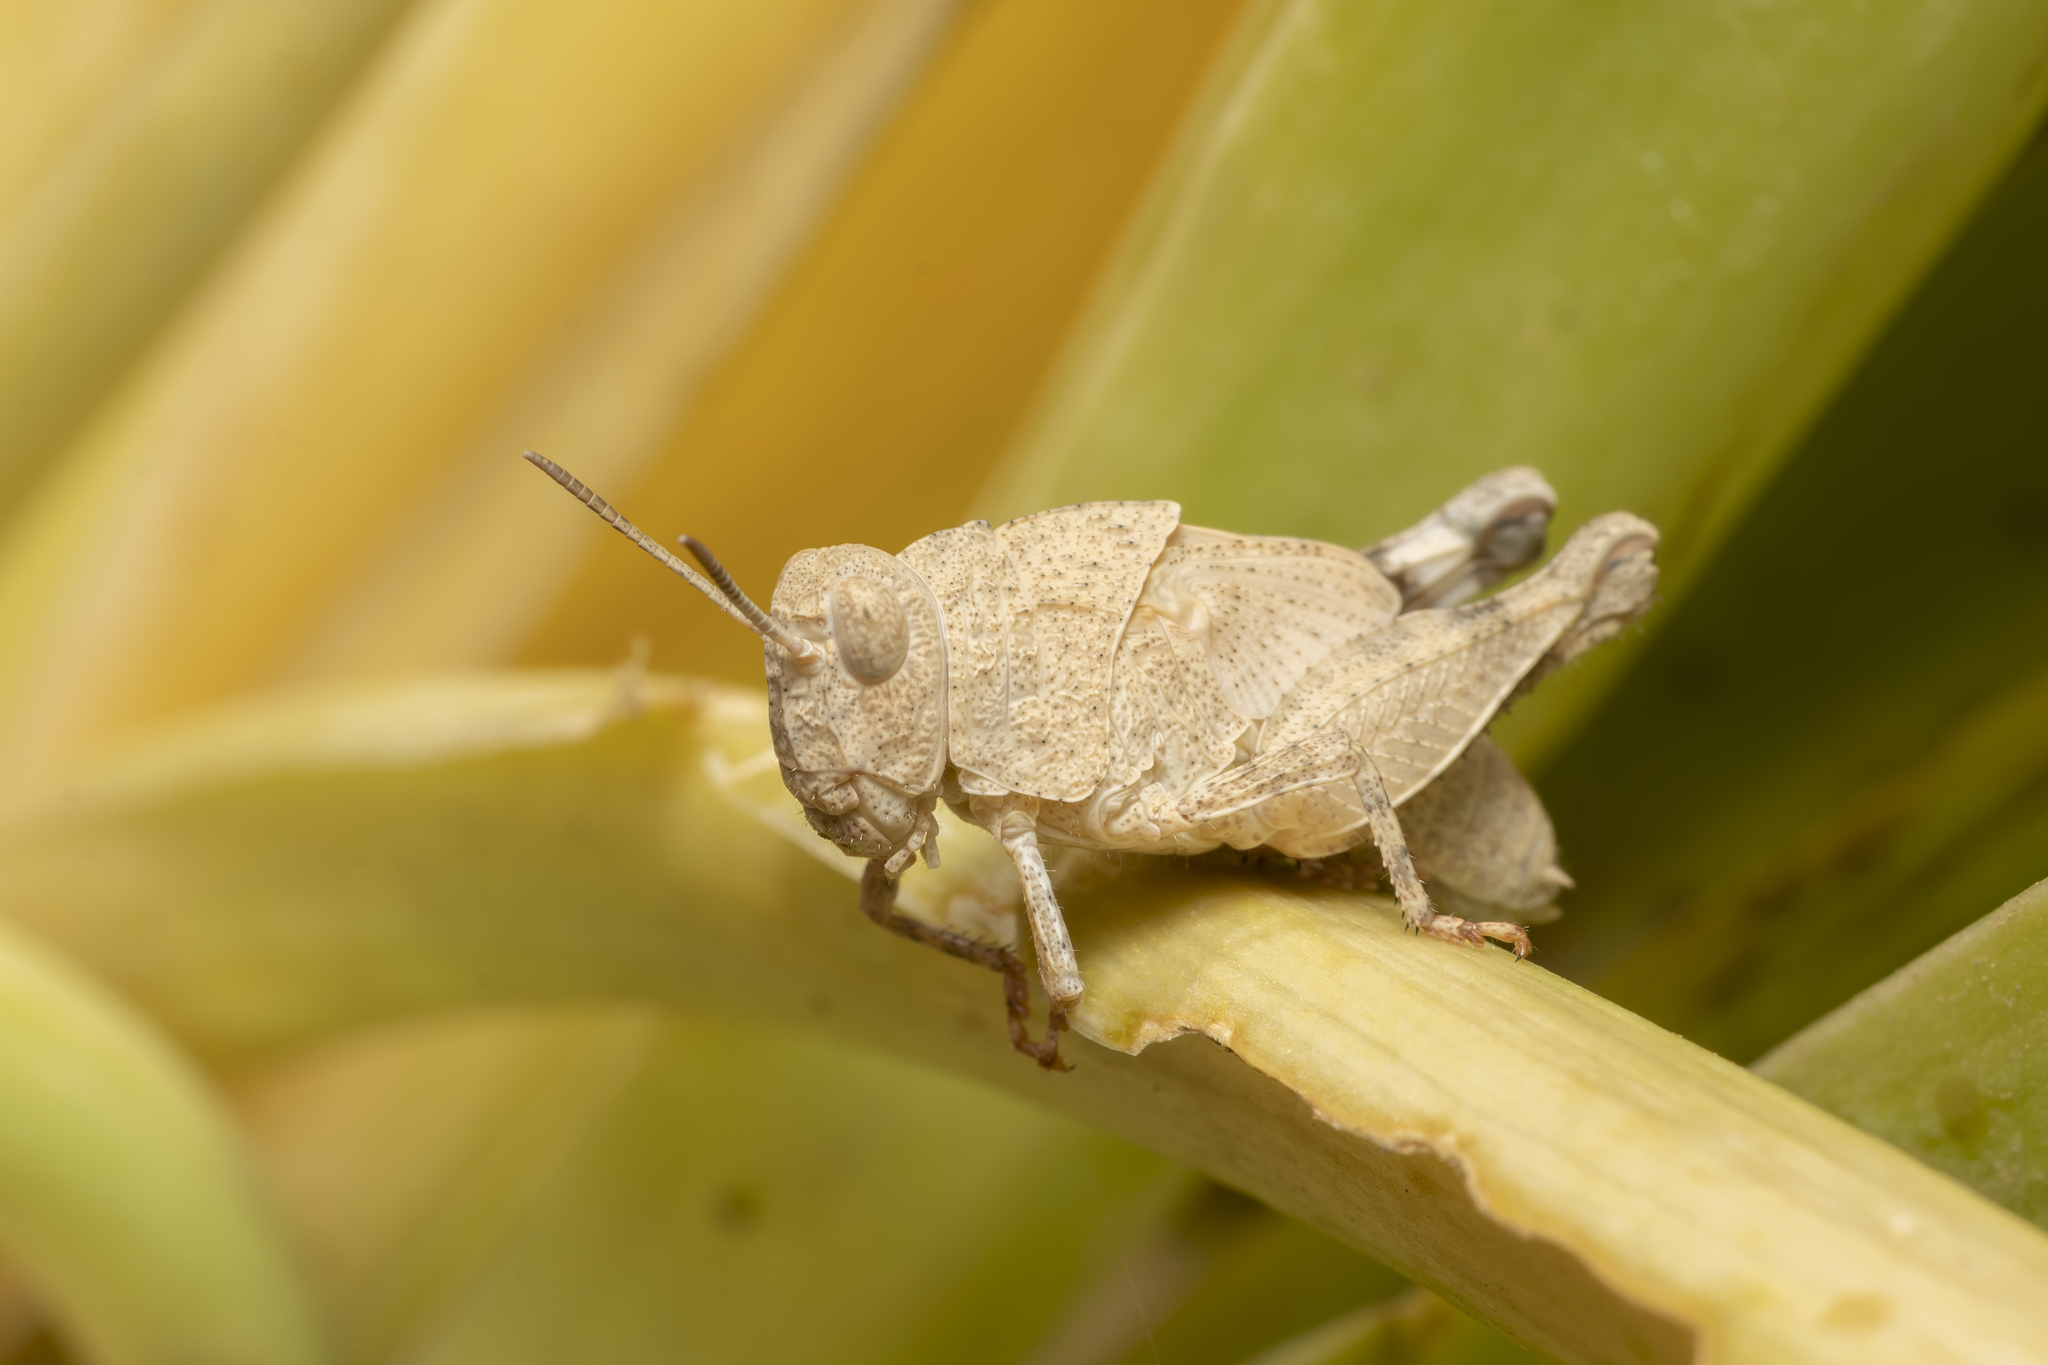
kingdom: Animalia
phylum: Arthropoda
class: Insecta
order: Orthoptera
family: Acrididae
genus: Oedipoda
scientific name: Oedipoda
